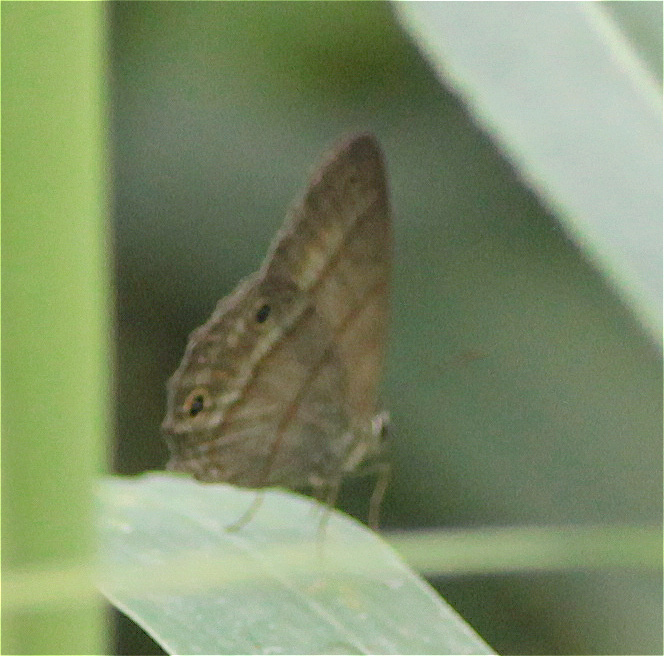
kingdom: Animalia
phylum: Arthropoda
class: Insecta
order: Lepidoptera
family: Nymphalidae
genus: Euptychia
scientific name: Euptychia Cissia pompilia
